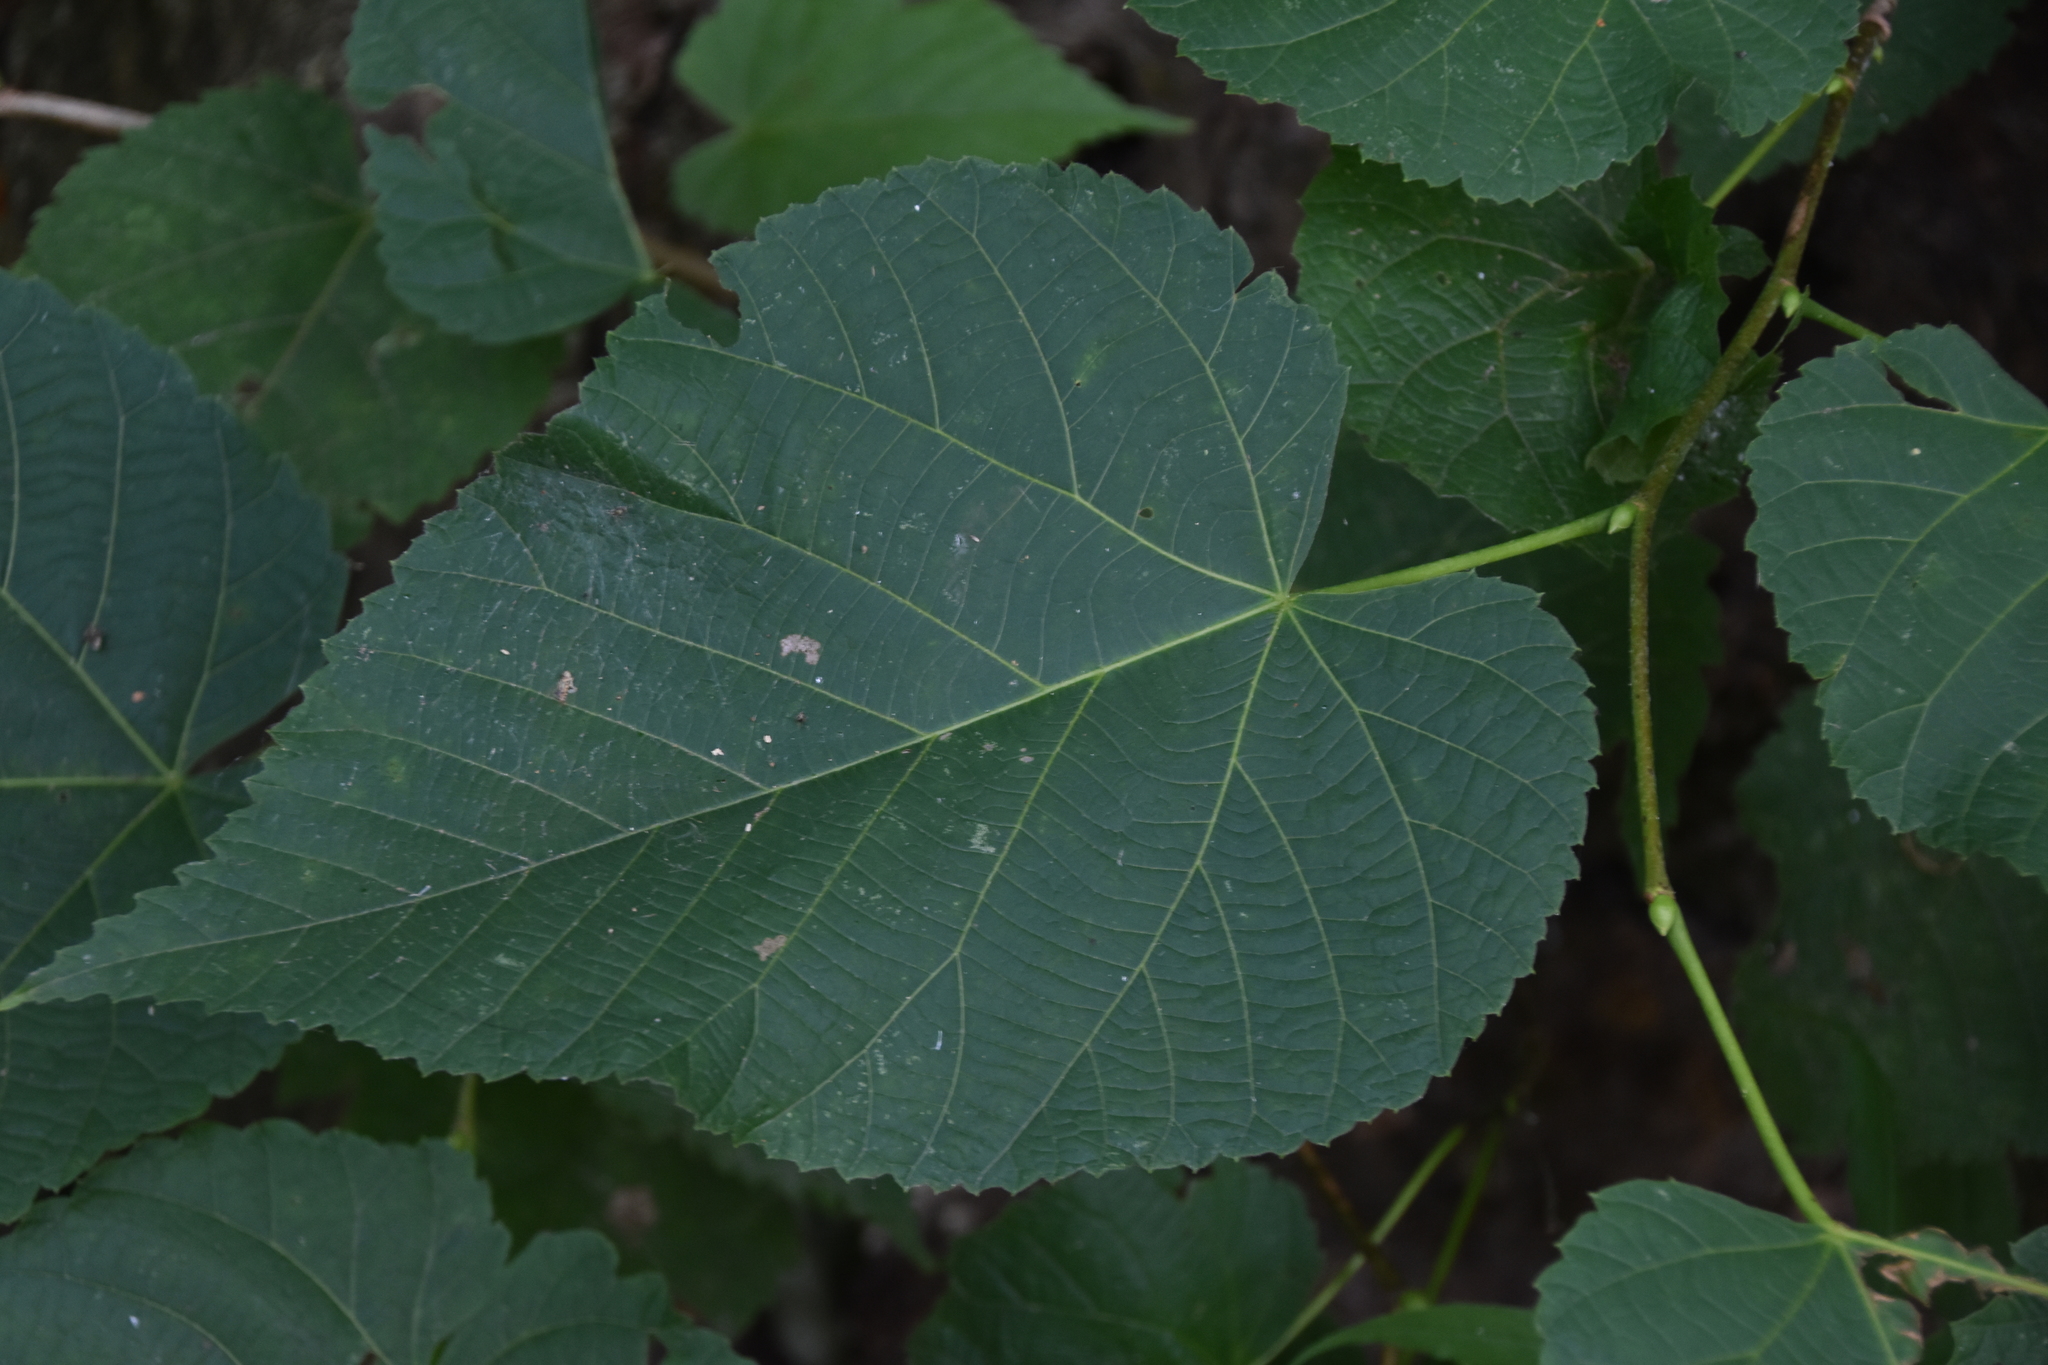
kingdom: Plantae
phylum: Tracheophyta
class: Magnoliopsida
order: Malvales
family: Malvaceae
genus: Tilia
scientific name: Tilia americana
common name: Basswood
